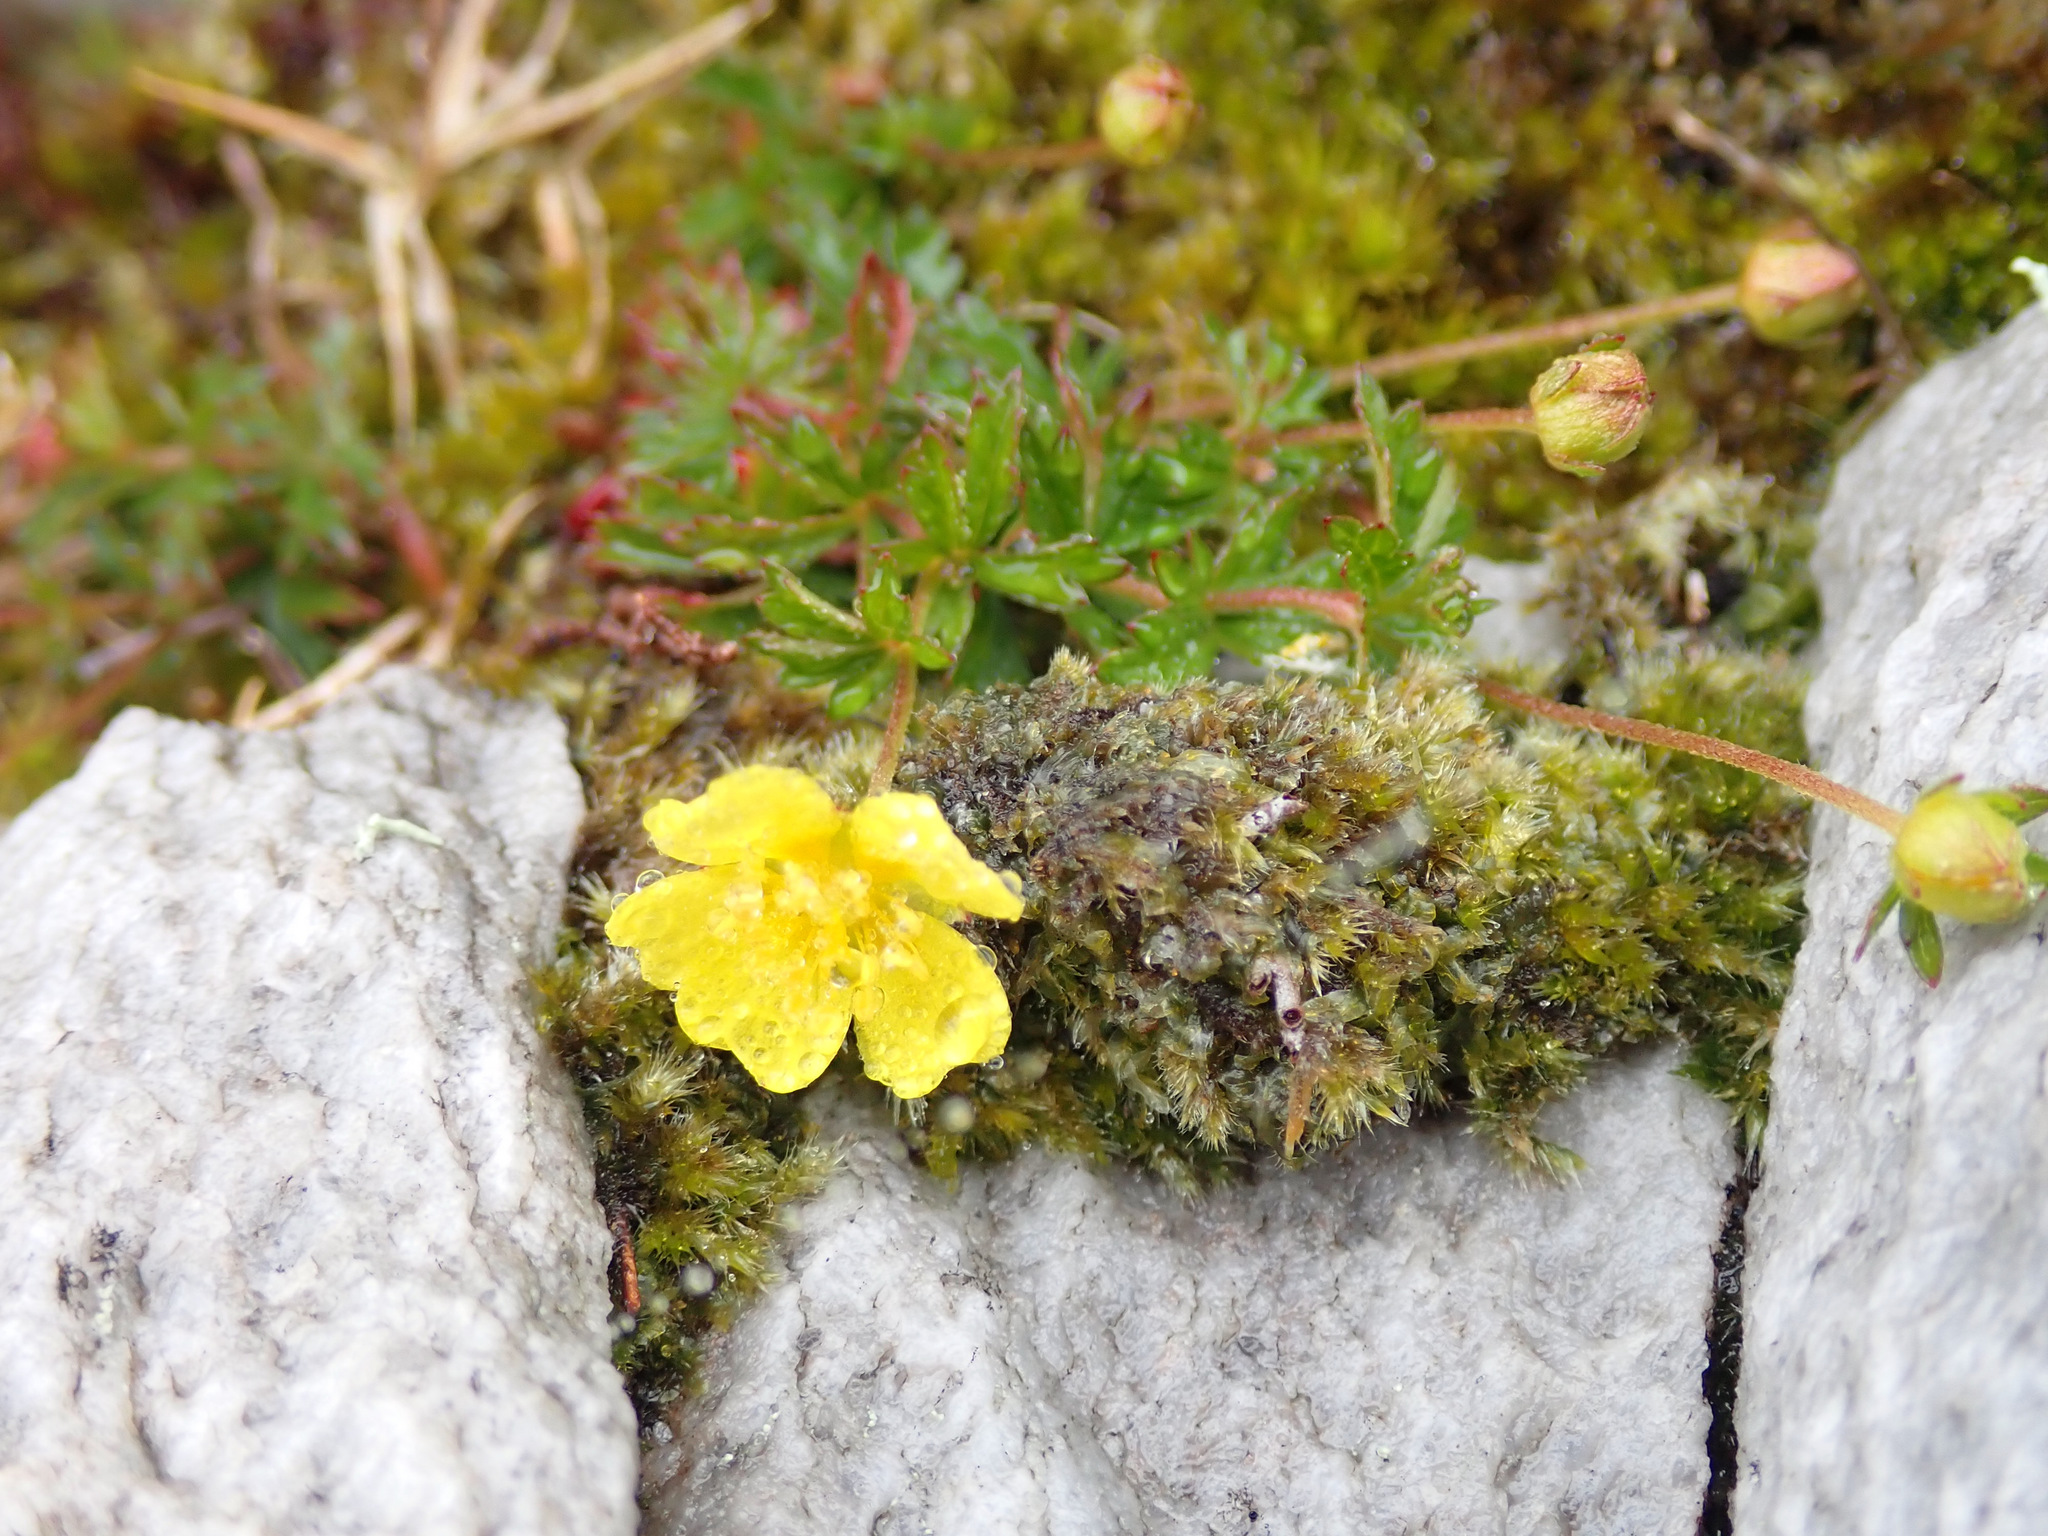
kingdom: Plantae
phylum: Tracheophyta
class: Magnoliopsida
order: Rosales
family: Rosaceae
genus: Potentilla
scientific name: Potentilla erecta
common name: Tormentil
